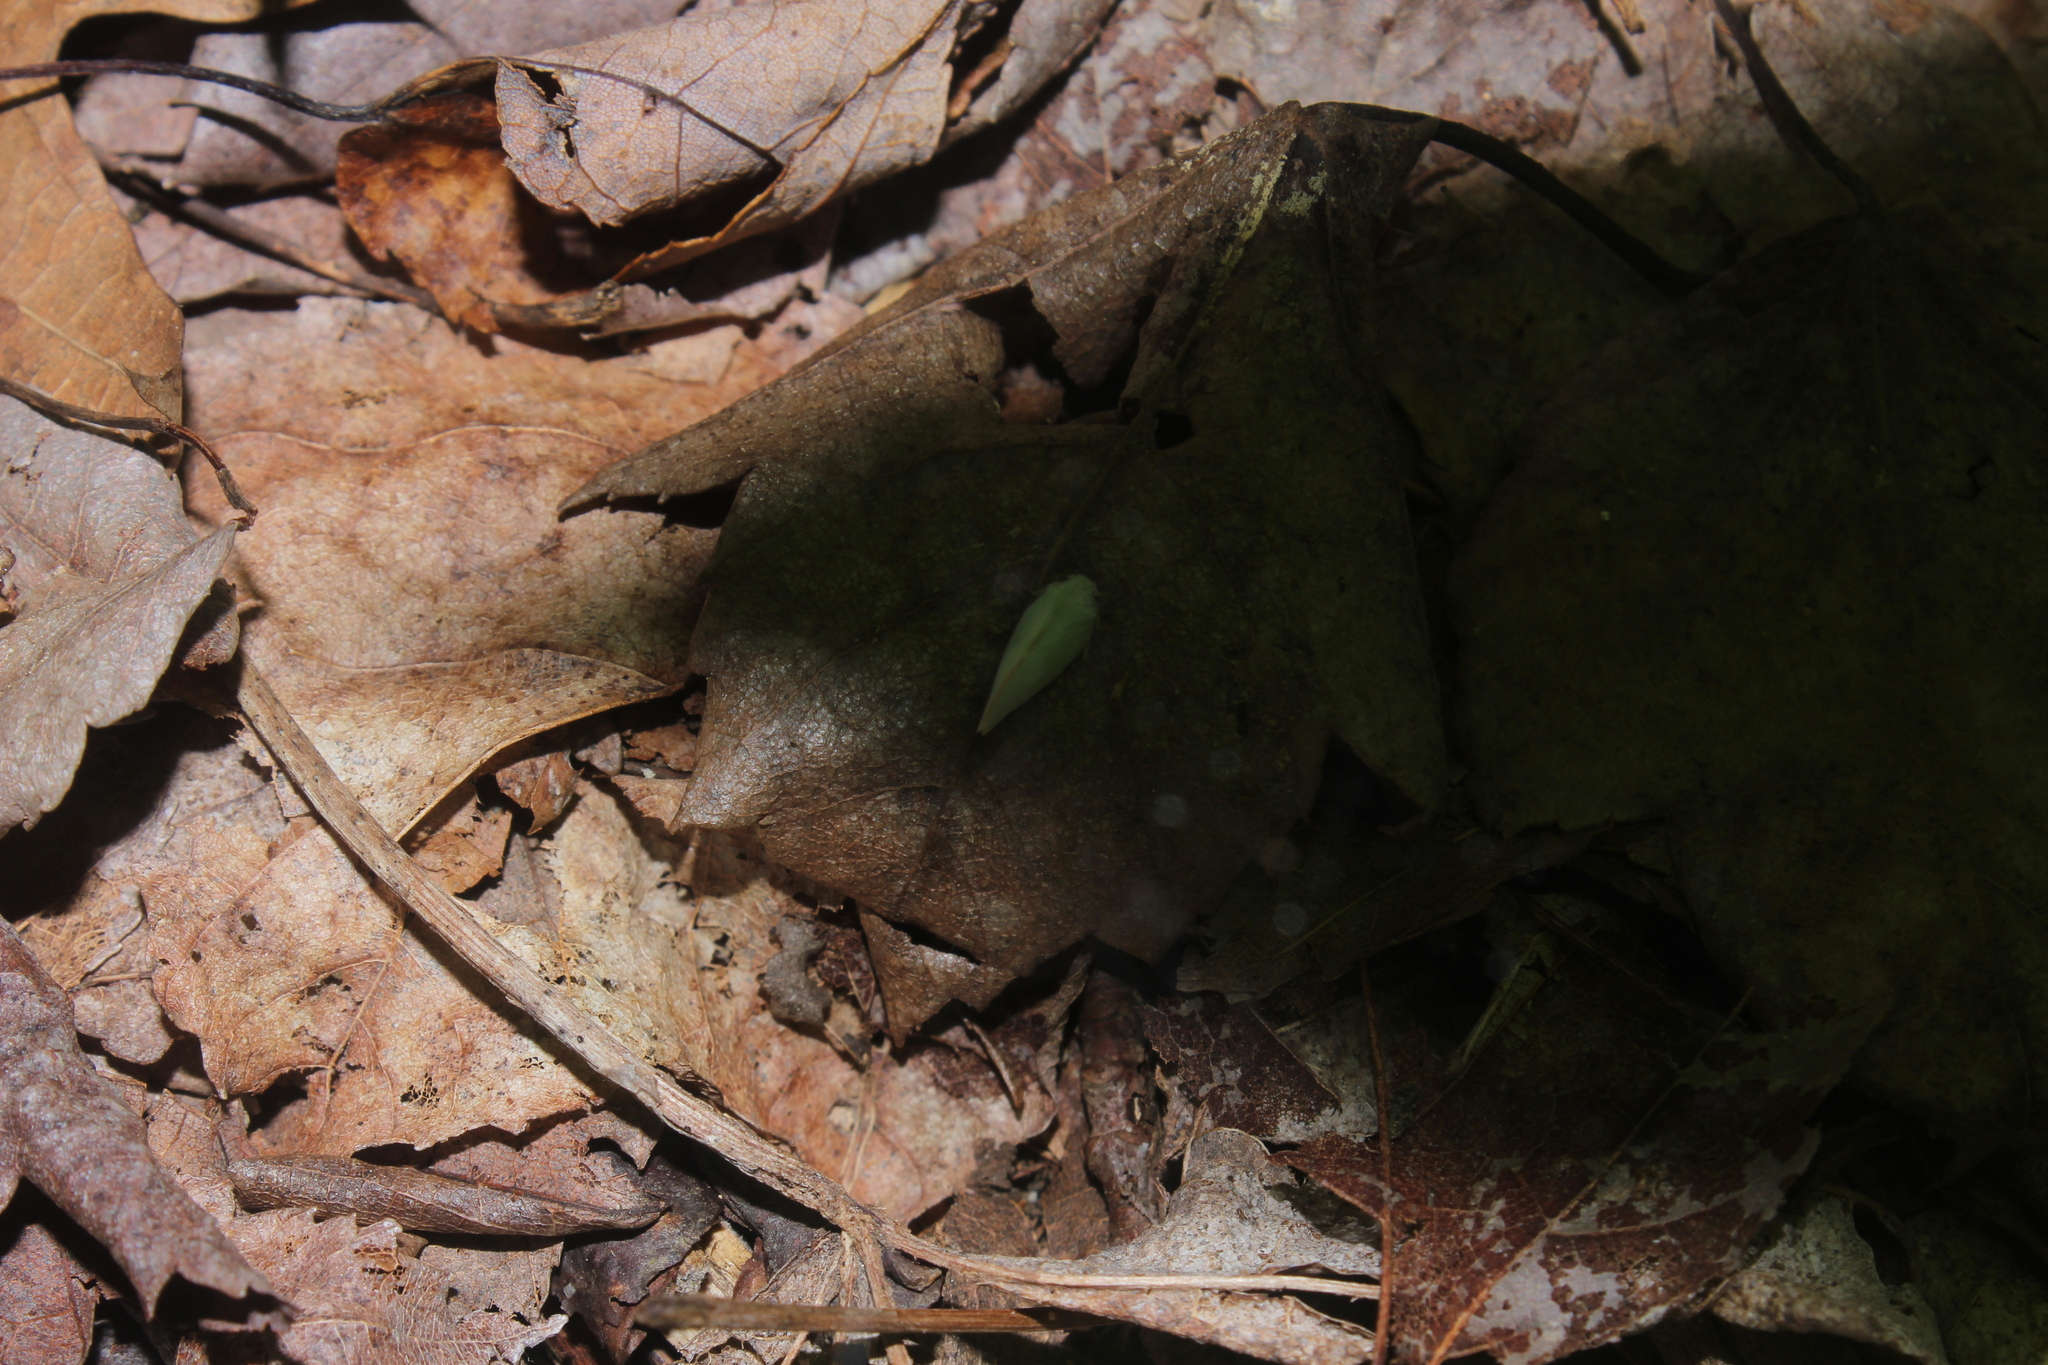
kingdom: Animalia
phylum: Arthropoda
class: Insecta
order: Hemiptera
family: Flatidae
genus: Ormenoides
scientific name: Ormenoides venusta
